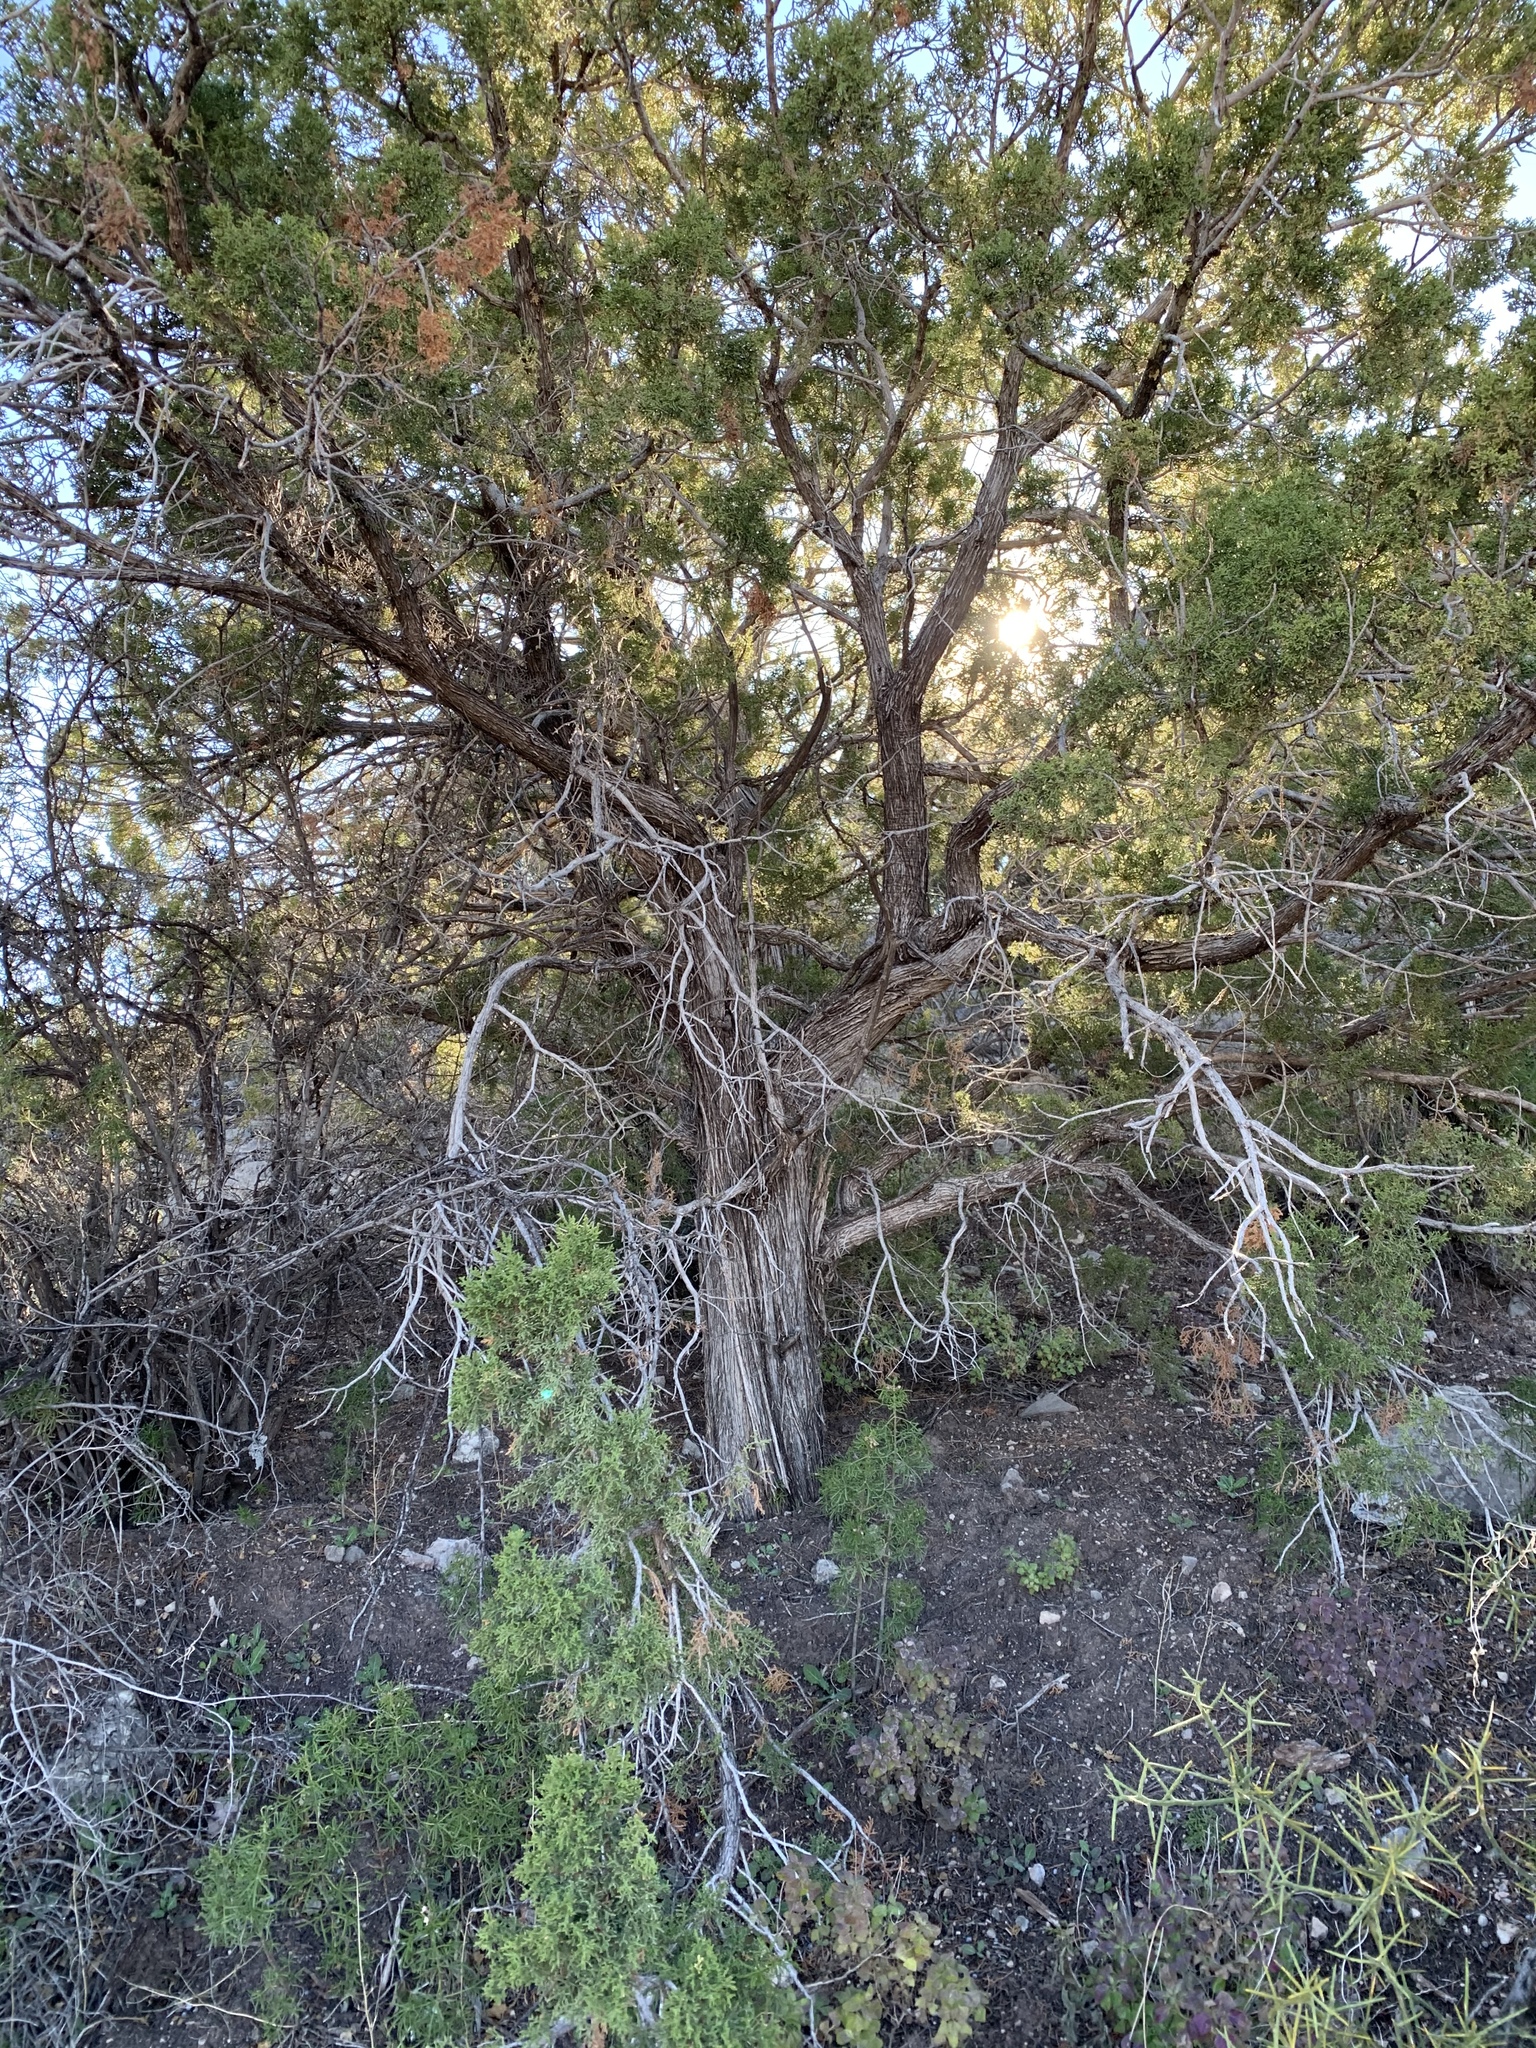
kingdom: Plantae
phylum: Tracheophyta
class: Pinopsida
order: Pinales
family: Cupressaceae
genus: Juniperus
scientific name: Juniperus monosperma
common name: One-seed juniper
